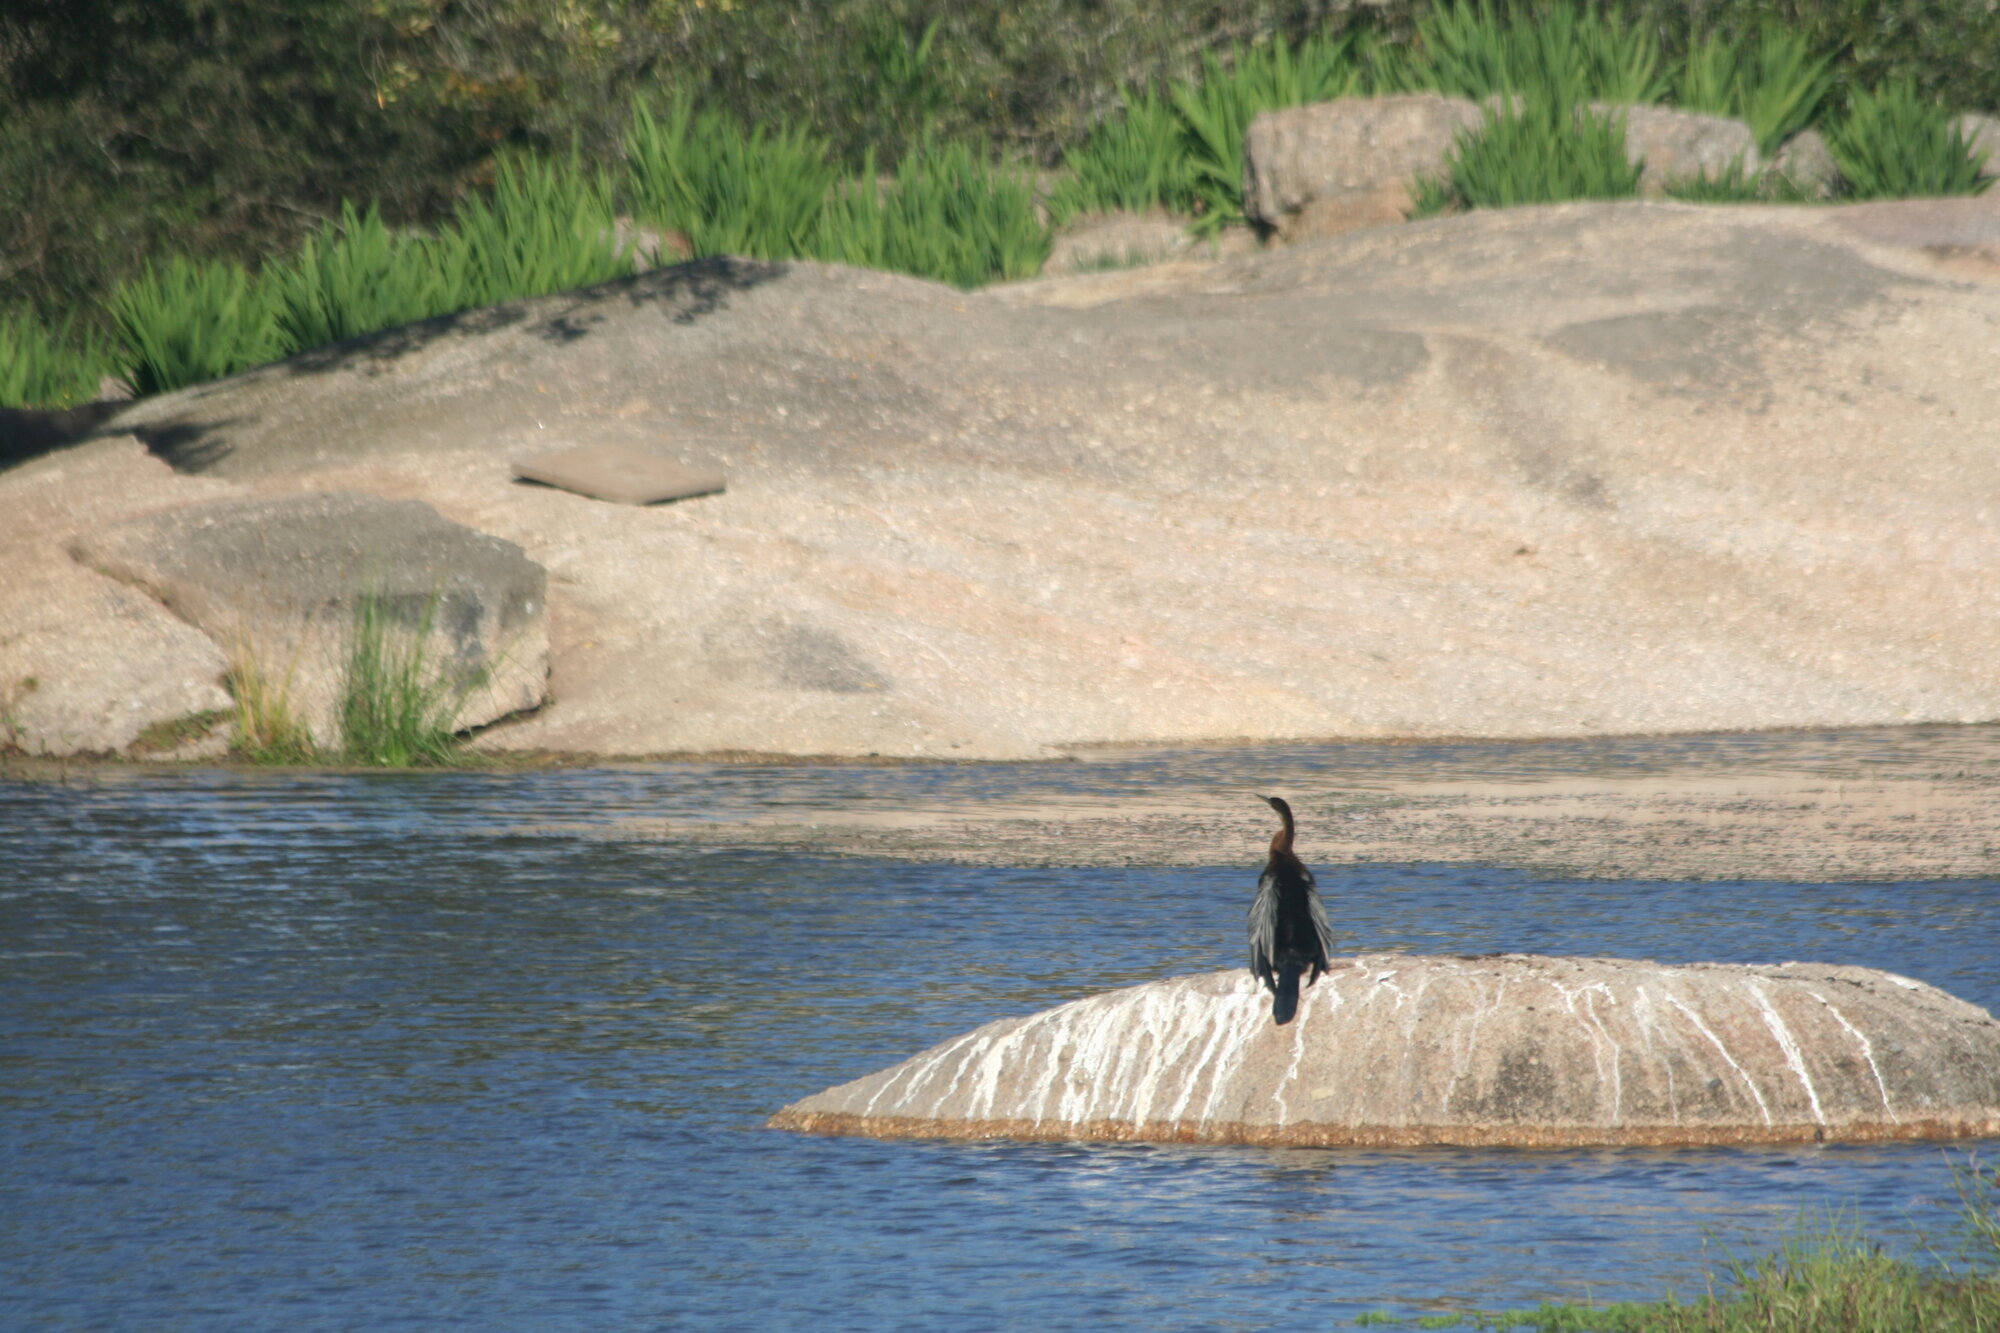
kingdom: Animalia
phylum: Chordata
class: Aves
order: Suliformes
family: Anhingidae
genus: Anhinga
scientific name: Anhinga rufa
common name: African darter
